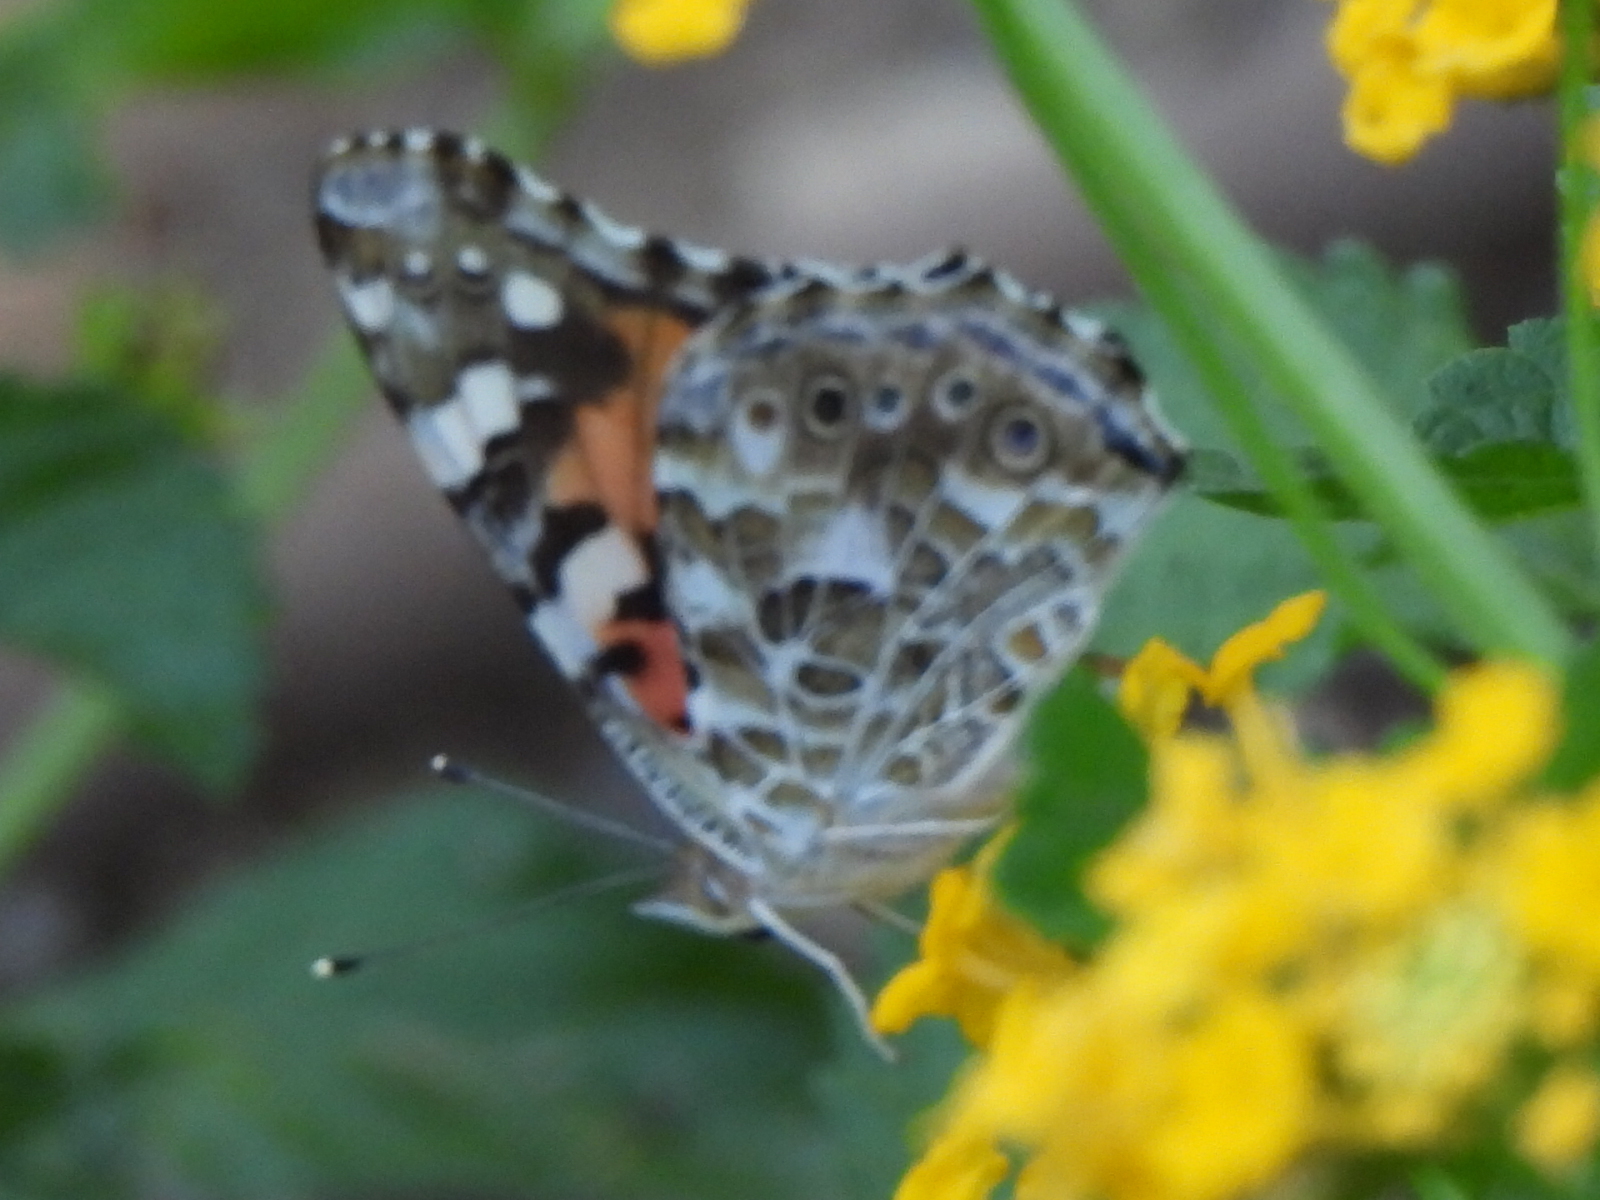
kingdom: Animalia
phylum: Arthropoda
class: Insecta
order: Lepidoptera
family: Nymphalidae
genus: Vanessa
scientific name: Vanessa cardui
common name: Painted lady
